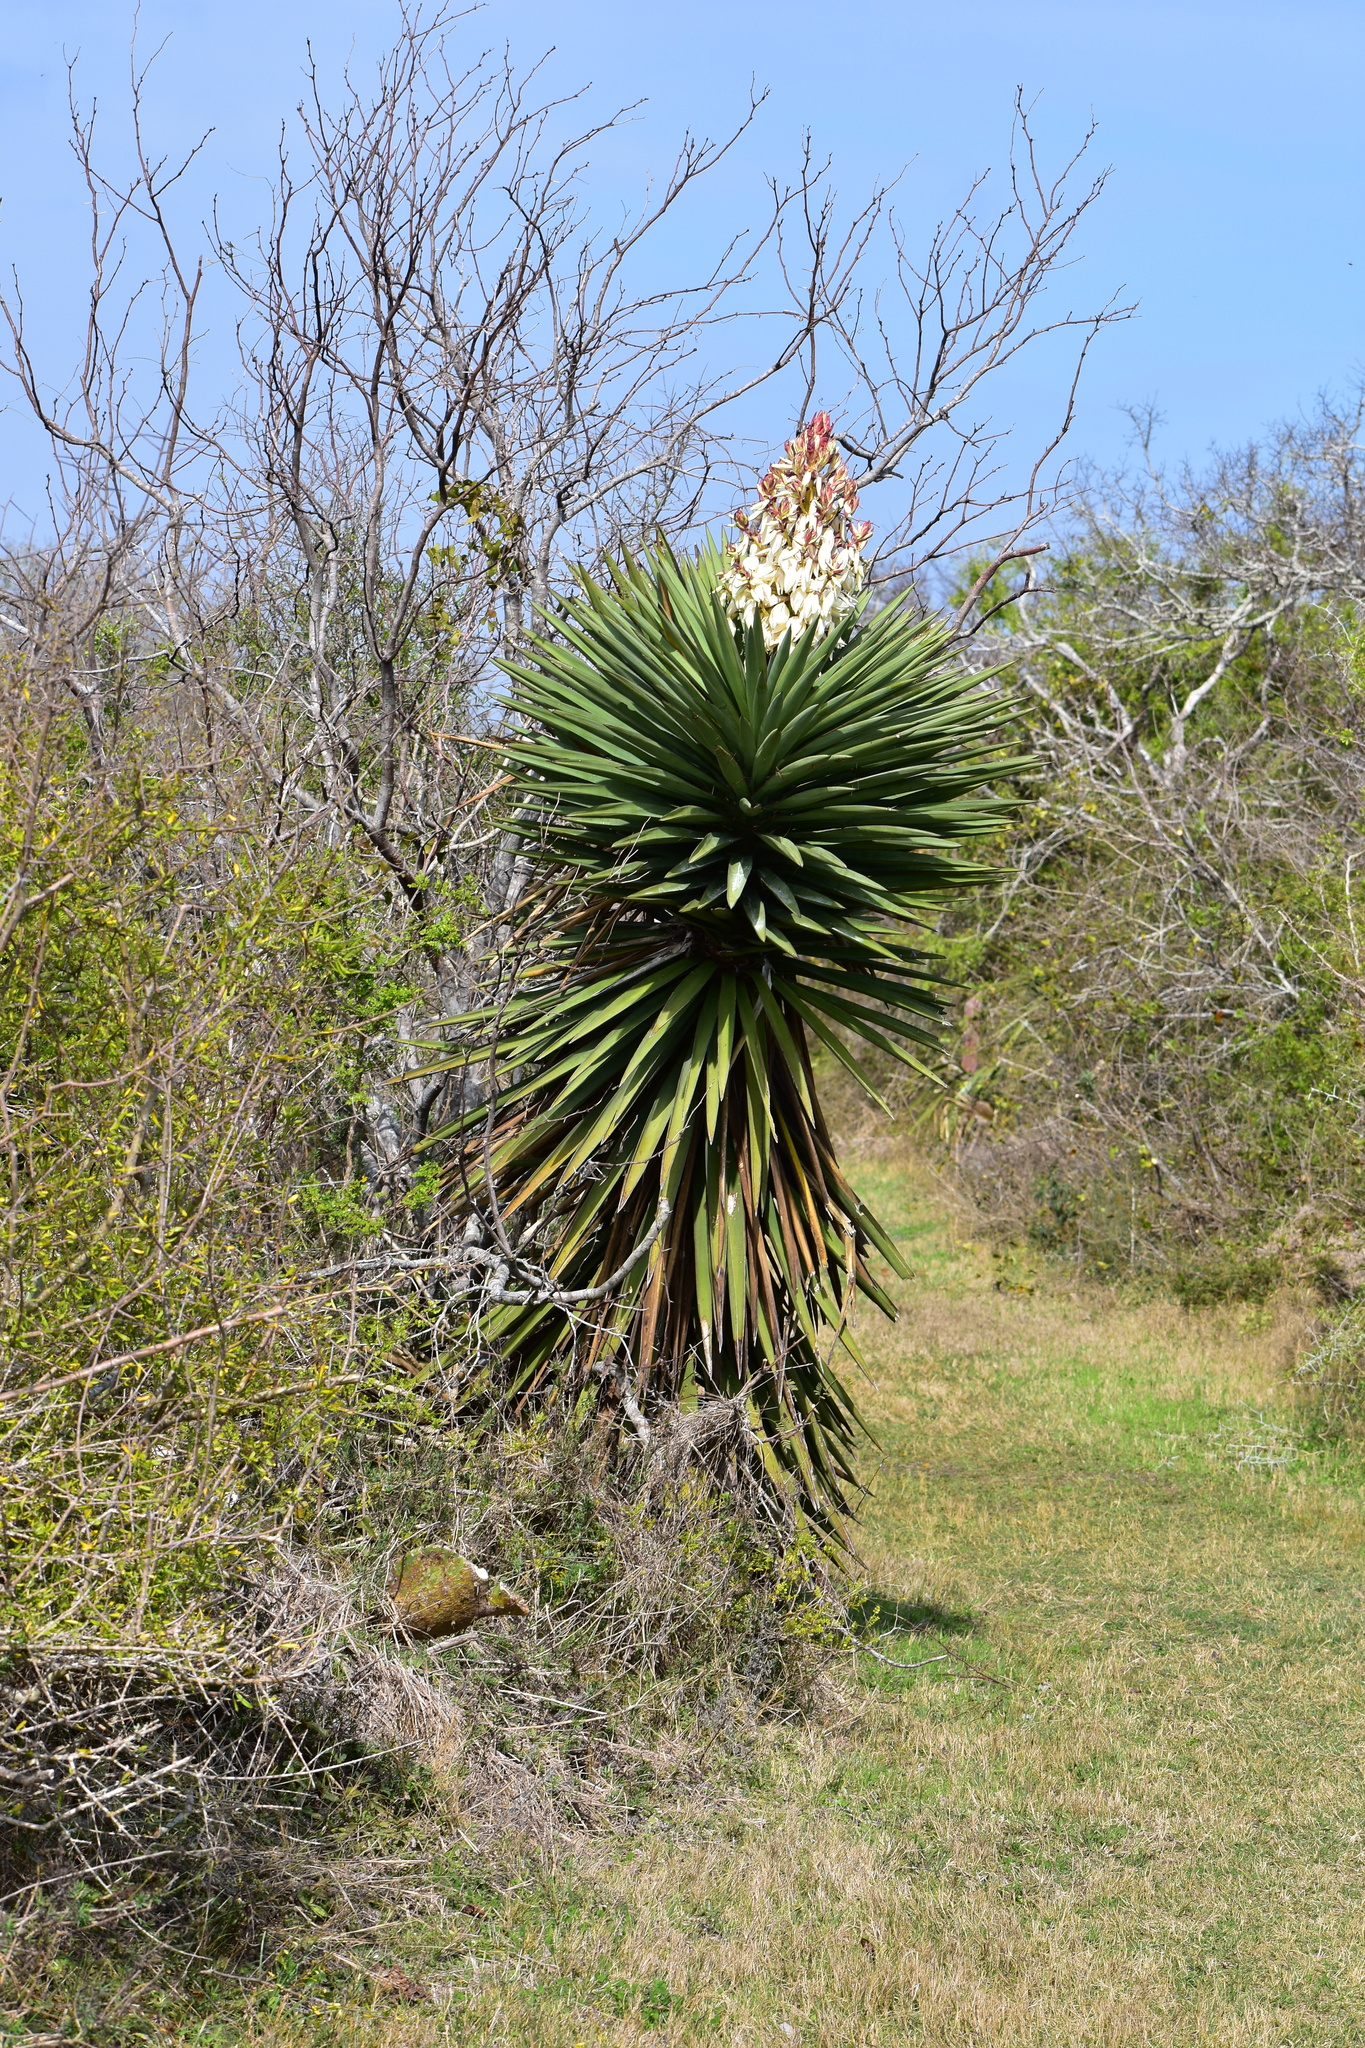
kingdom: Plantae
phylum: Tracheophyta
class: Liliopsida
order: Asparagales
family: Asparagaceae
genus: Yucca
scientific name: Yucca treculiana
